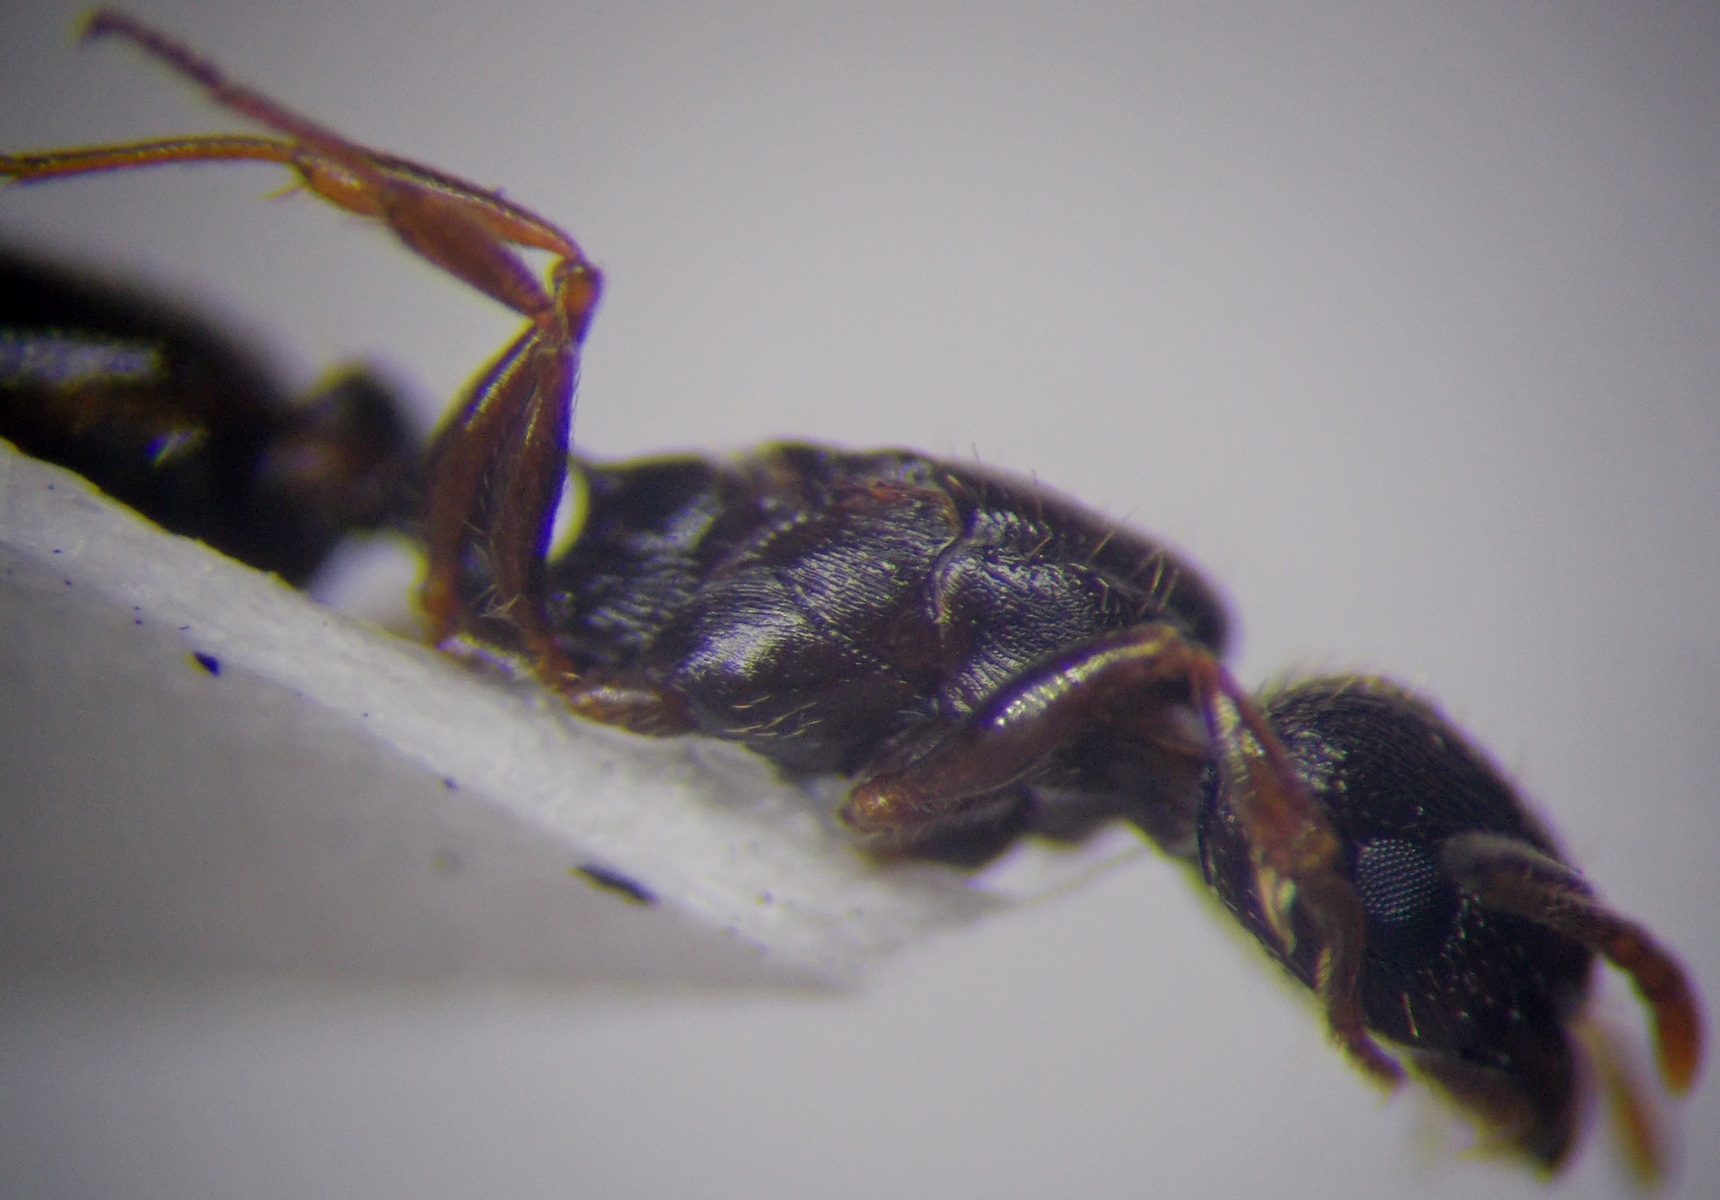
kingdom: Animalia
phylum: Arthropoda
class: Insecta
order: Hymenoptera
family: Formicidae
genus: Tetramorium
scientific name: Tetramorium inerme
